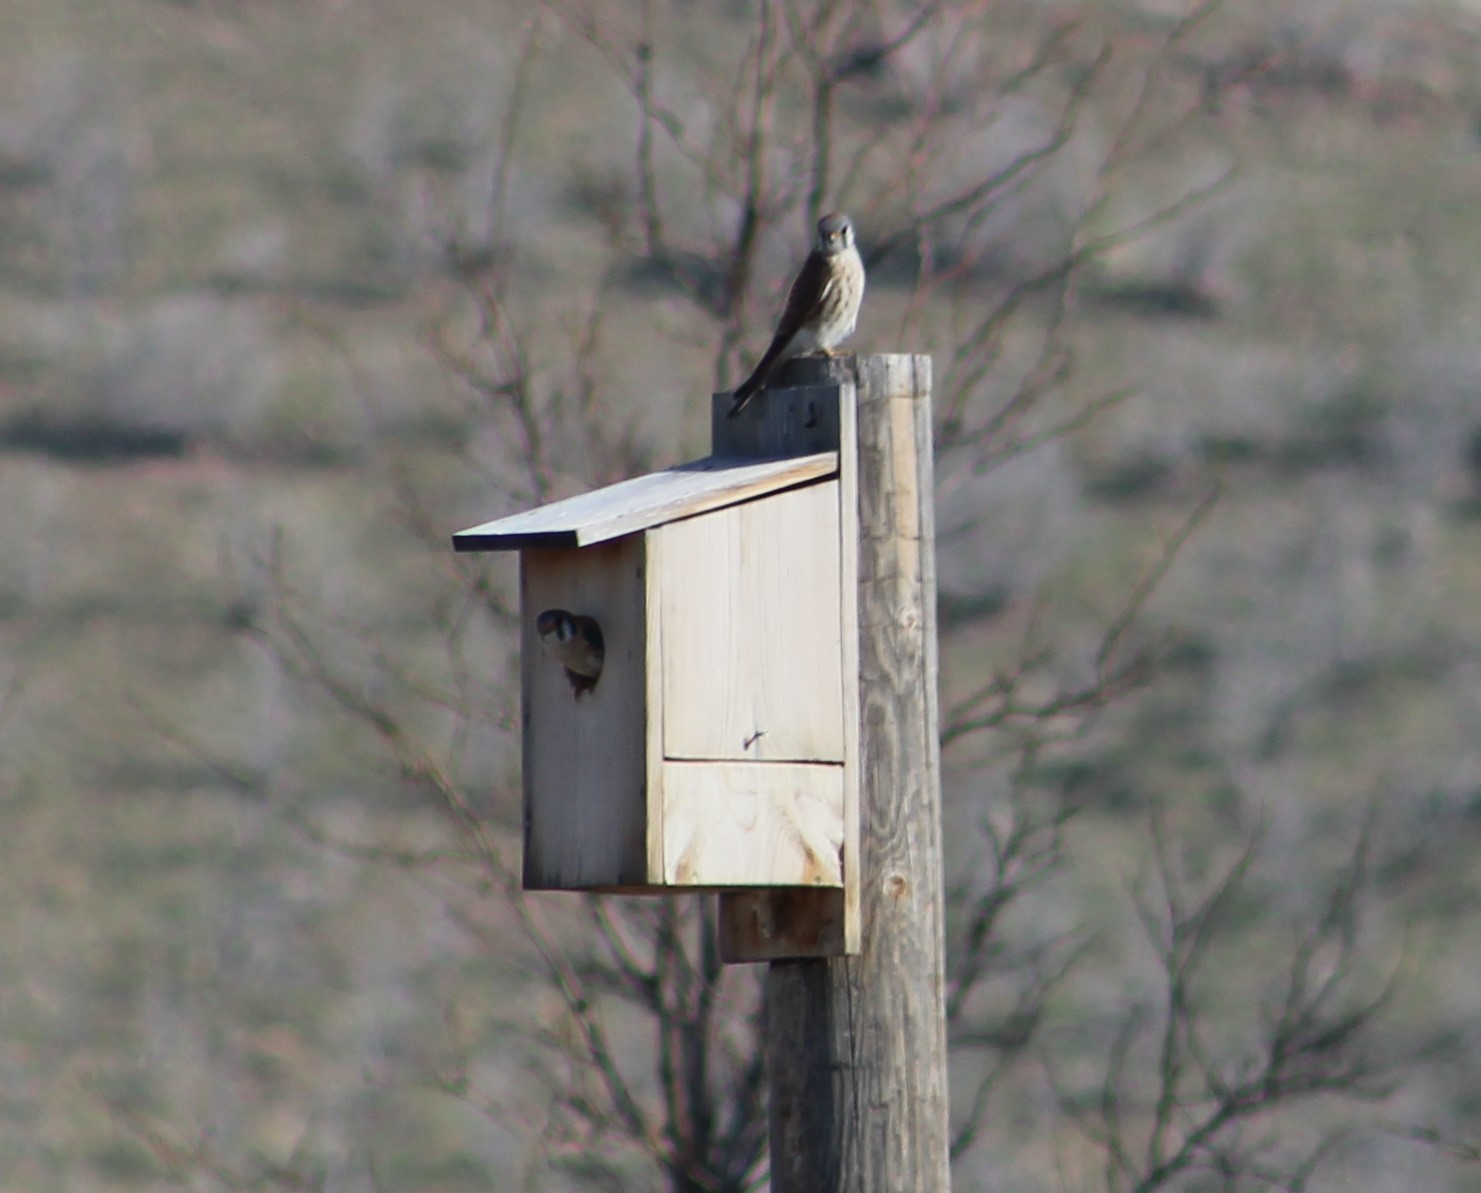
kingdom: Animalia
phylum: Chordata
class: Aves
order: Falconiformes
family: Falconidae
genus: Falco
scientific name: Falco sparverius
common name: American kestrel
